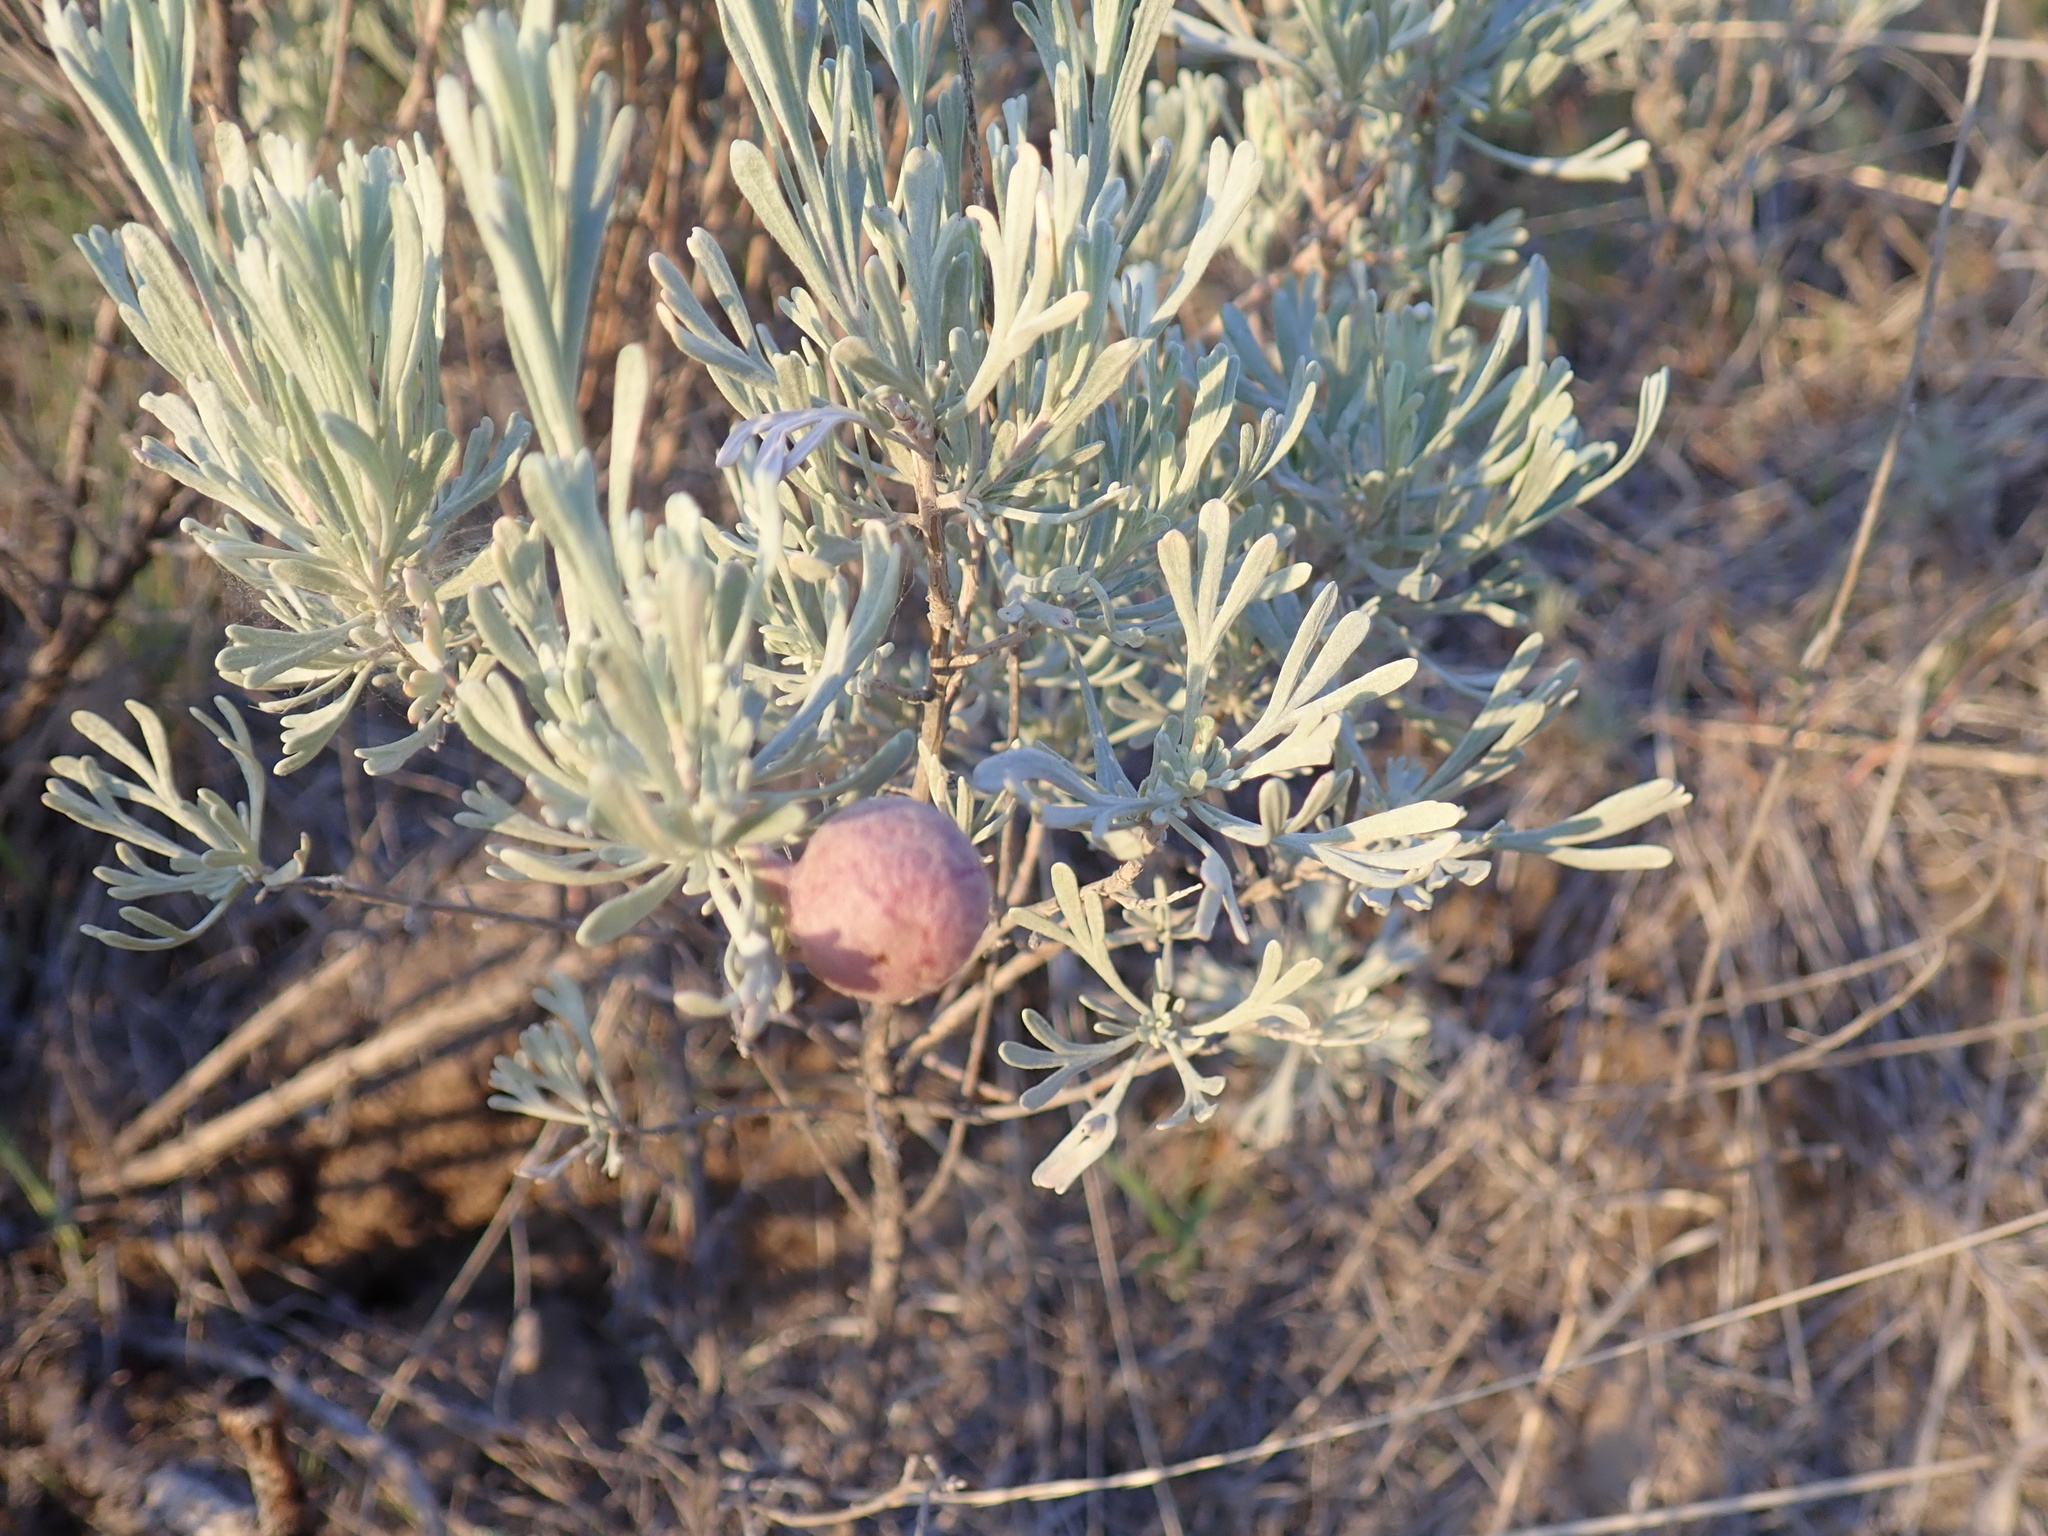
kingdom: Plantae
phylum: Tracheophyta
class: Magnoliopsida
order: Asterales
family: Asteraceae
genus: Artemisia
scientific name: Artemisia tripartita
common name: Three-tip sagebrush
